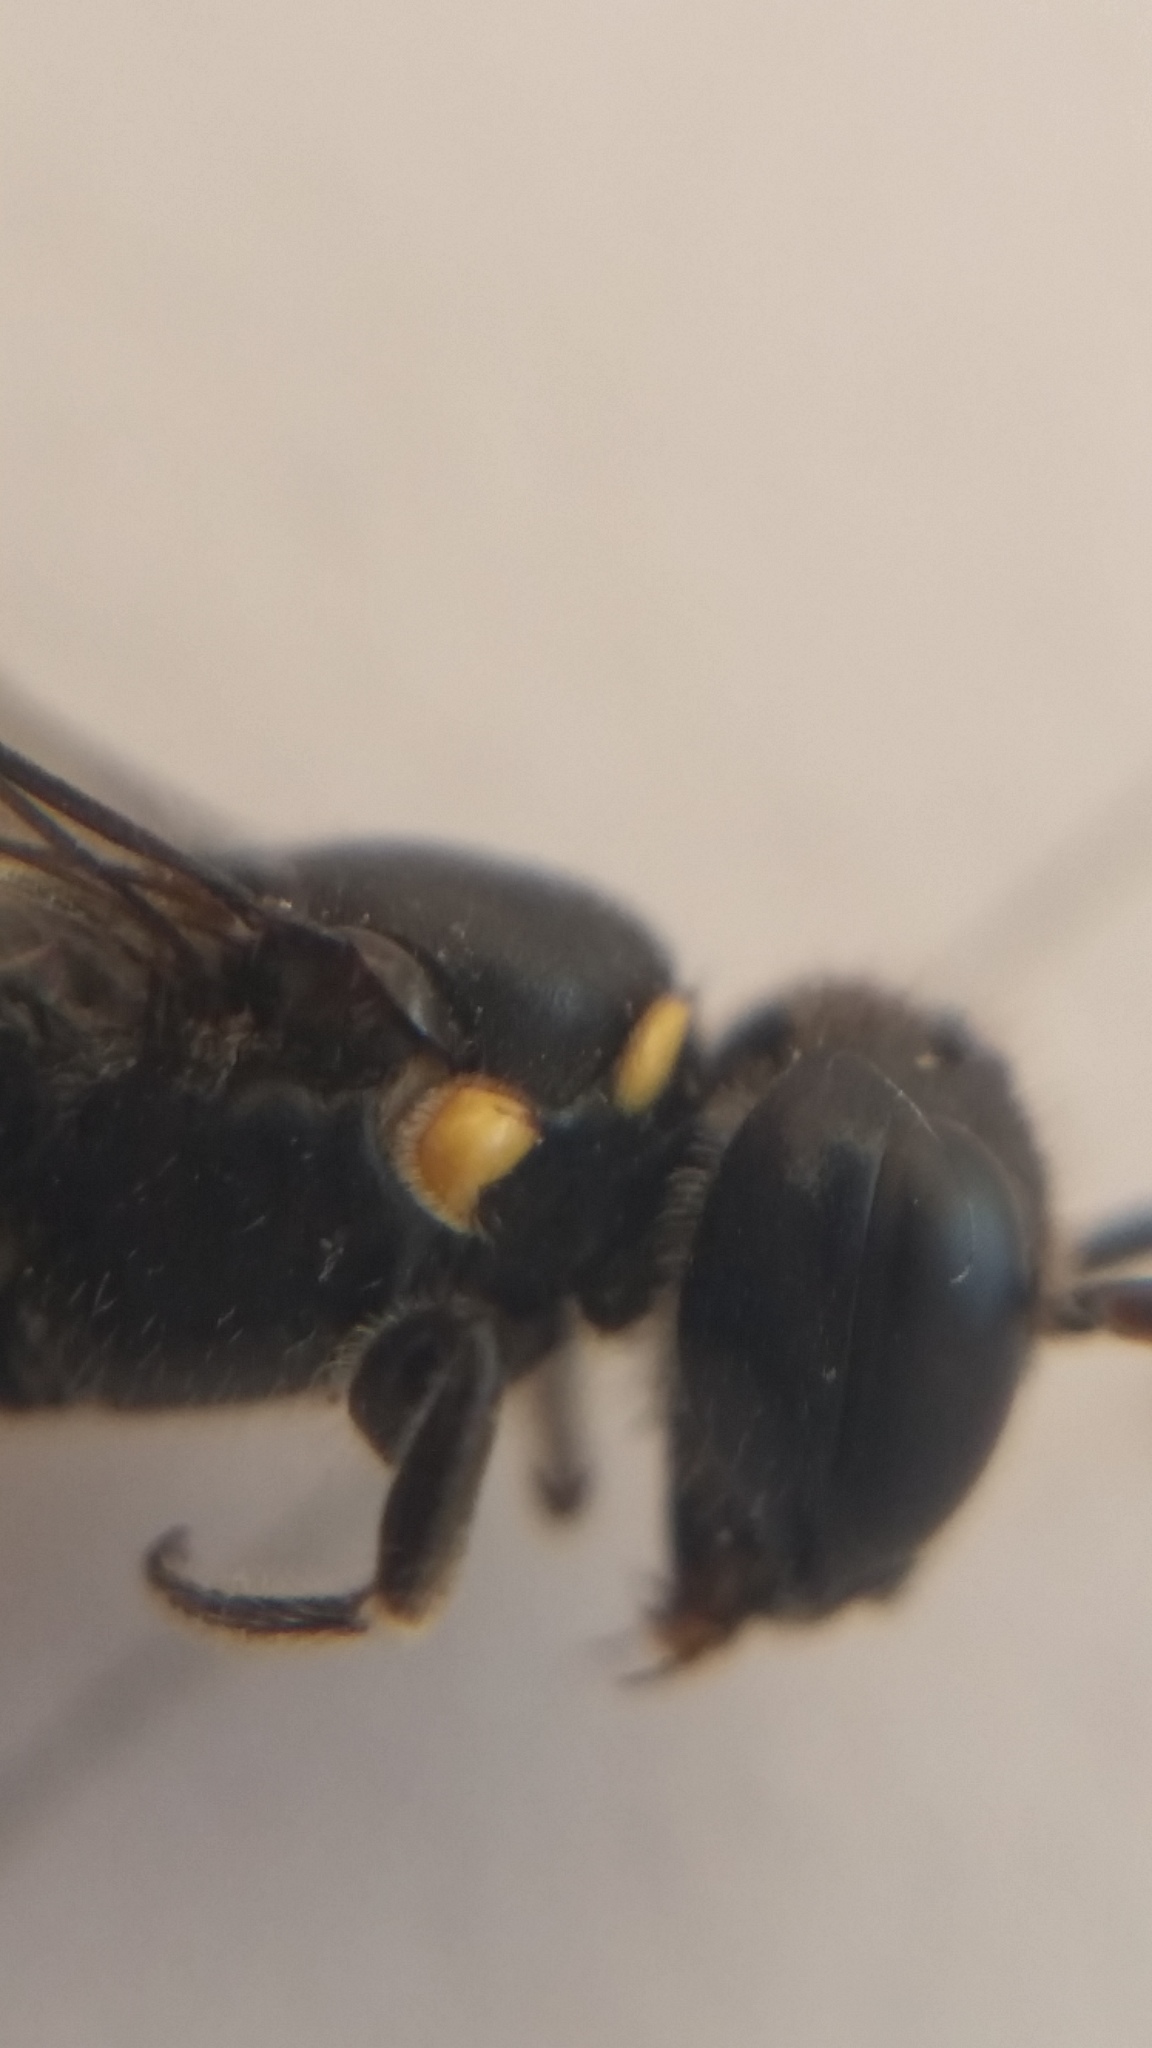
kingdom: Animalia
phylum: Arthropoda
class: Insecta
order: Hymenoptera
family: Colletidae
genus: Hylaeus
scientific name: Hylaeus relegatus
